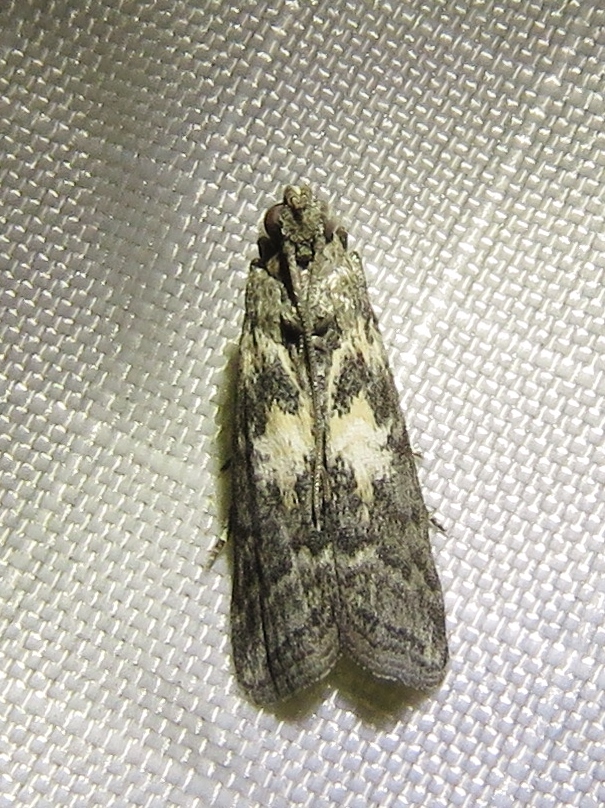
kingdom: Animalia
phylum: Arthropoda
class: Insecta
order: Lepidoptera
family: Pyralidae
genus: Tacoma
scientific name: Tacoma feriella
